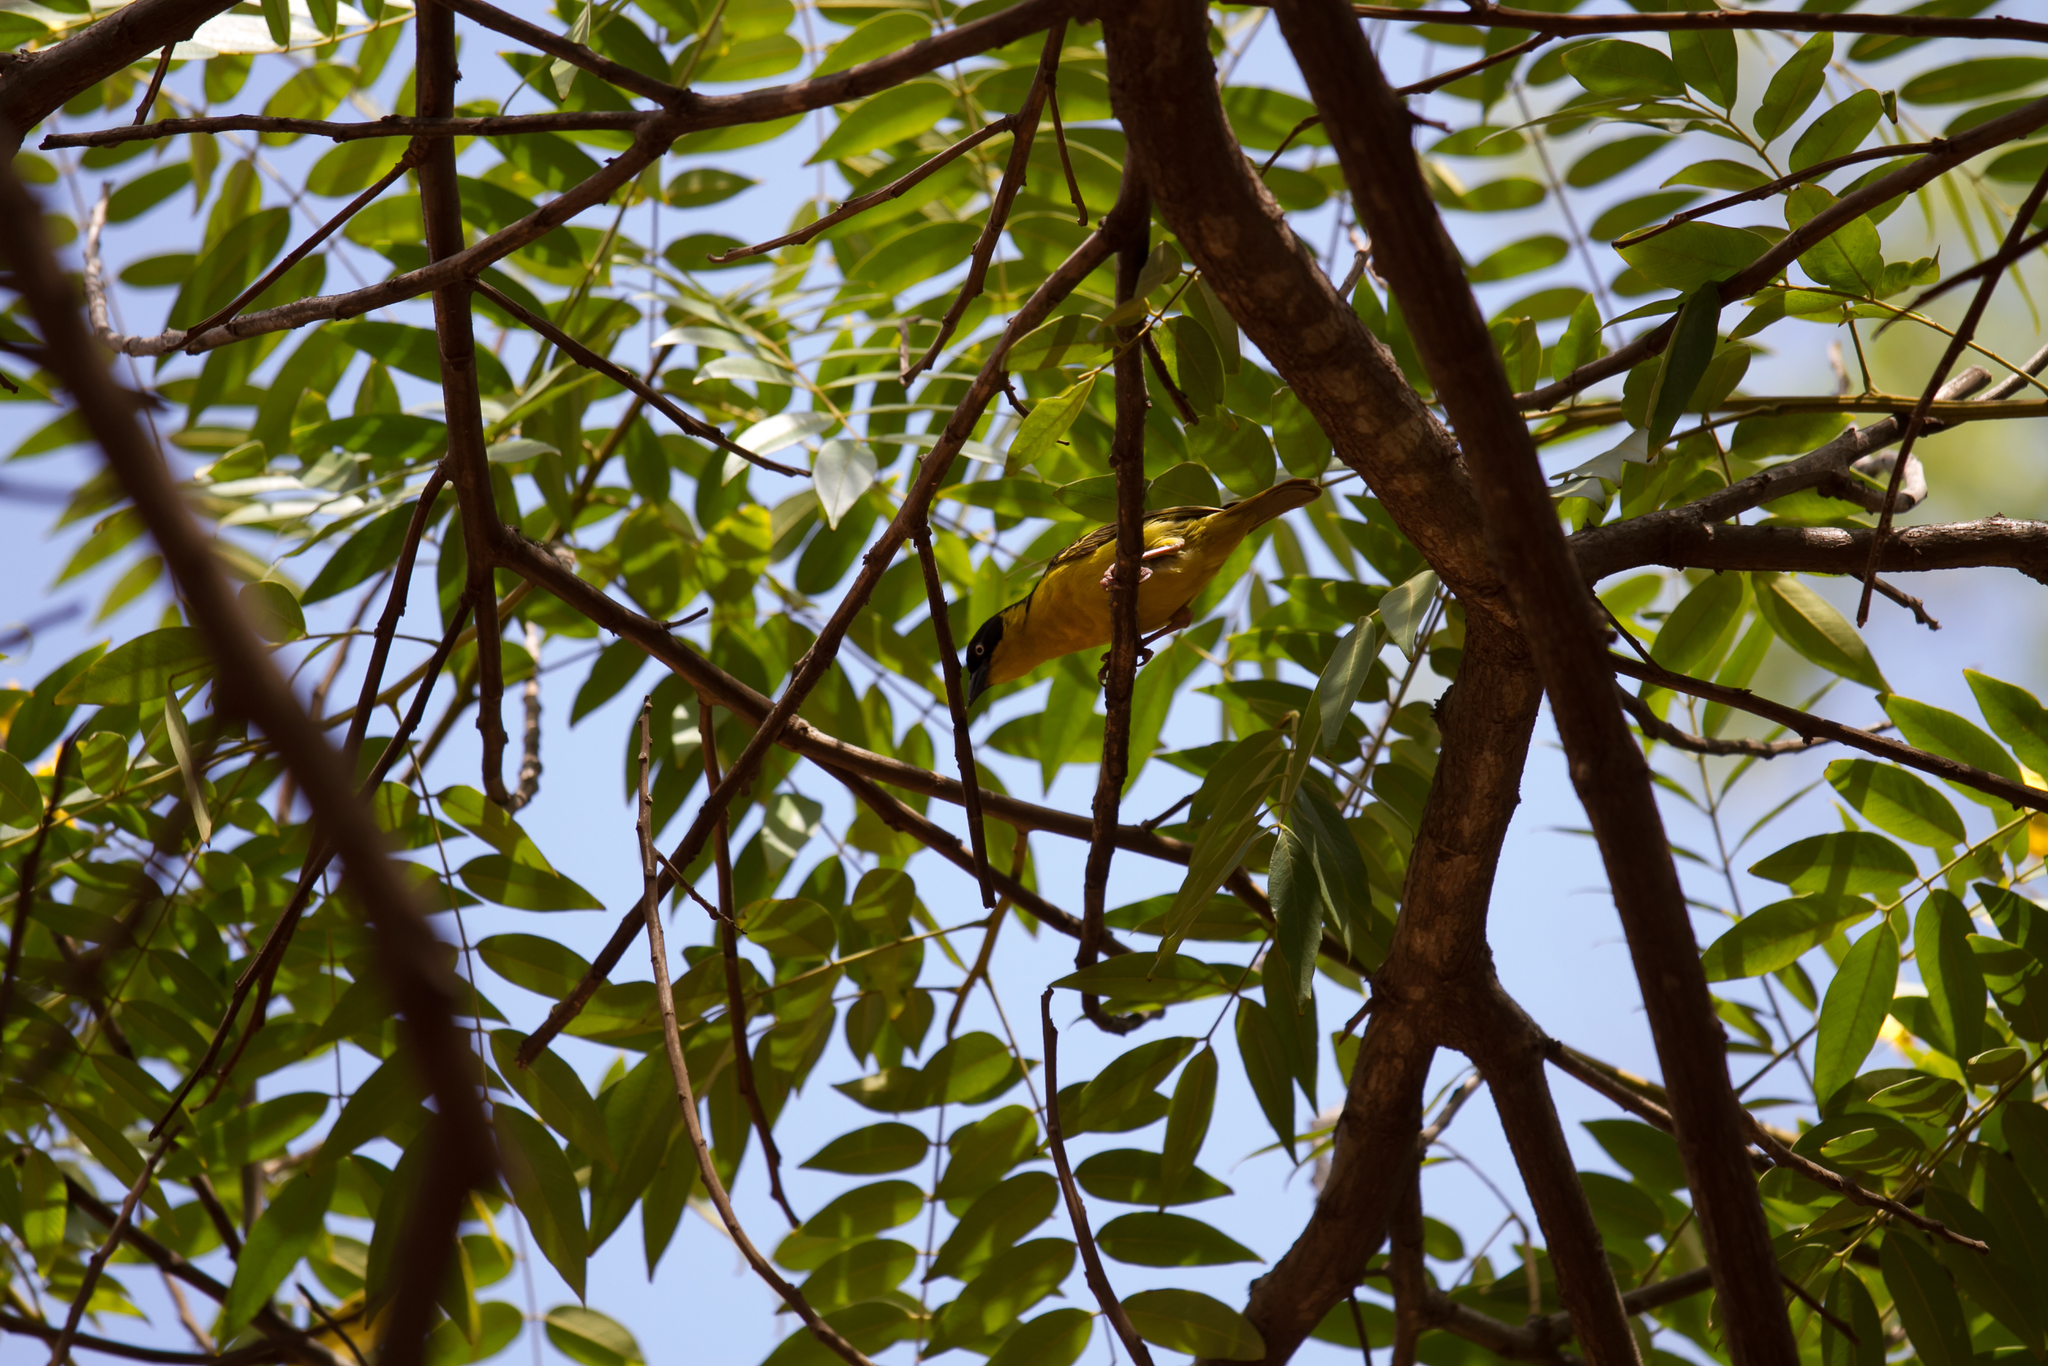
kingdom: Animalia
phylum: Chordata
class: Aves
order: Passeriformes
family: Ploceidae
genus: Ploceus
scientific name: Ploceus baglafecht
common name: Baglafecht weaver
